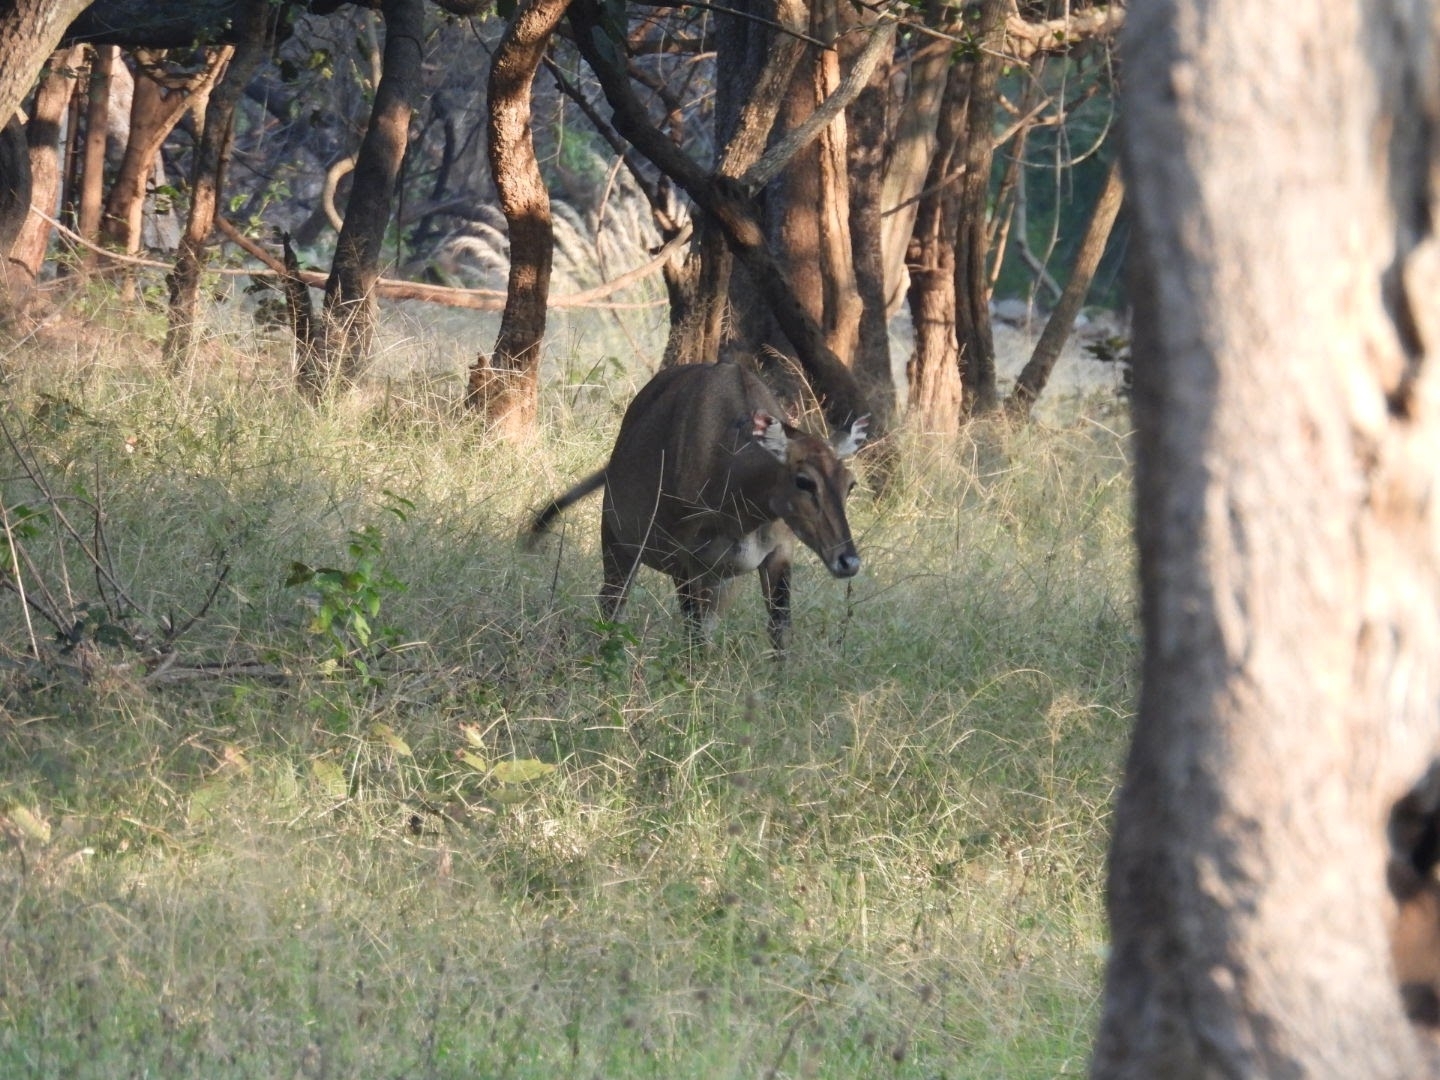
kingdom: Animalia
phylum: Chordata
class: Mammalia
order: Artiodactyla
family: Bovidae
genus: Boselaphus
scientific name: Boselaphus tragocamelus
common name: Nilgai
